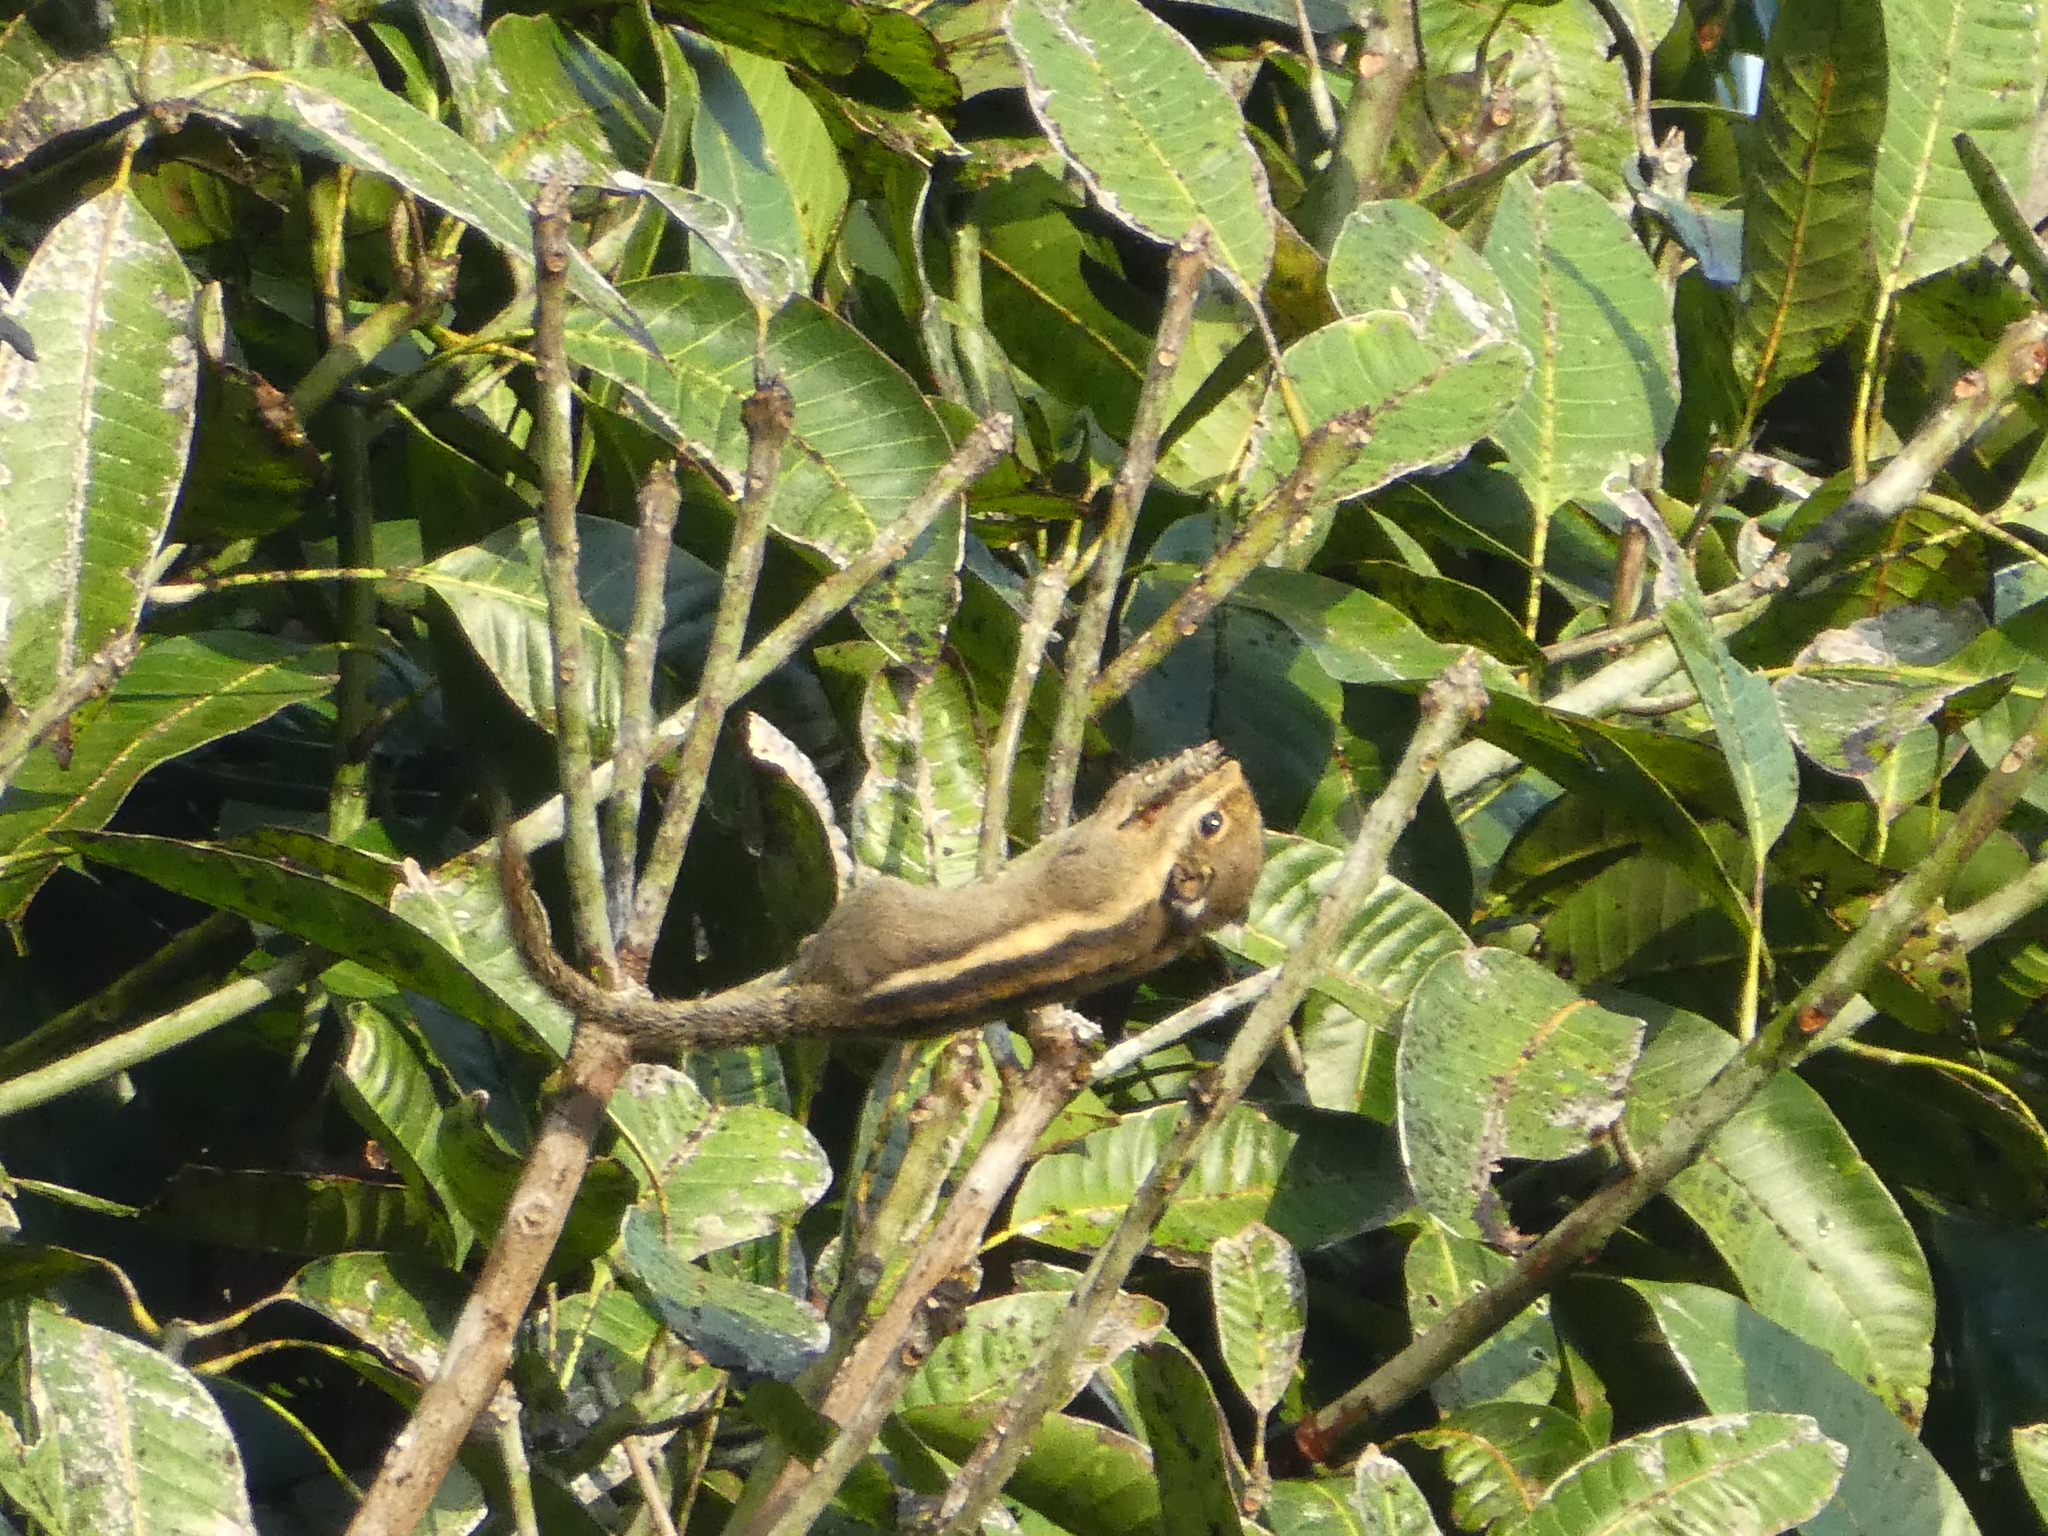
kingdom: Animalia
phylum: Chordata
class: Mammalia
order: Rodentia
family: Sciuridae
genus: Tamiops
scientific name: Tamiops mcclellandii
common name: Himalayan striped squirrel
